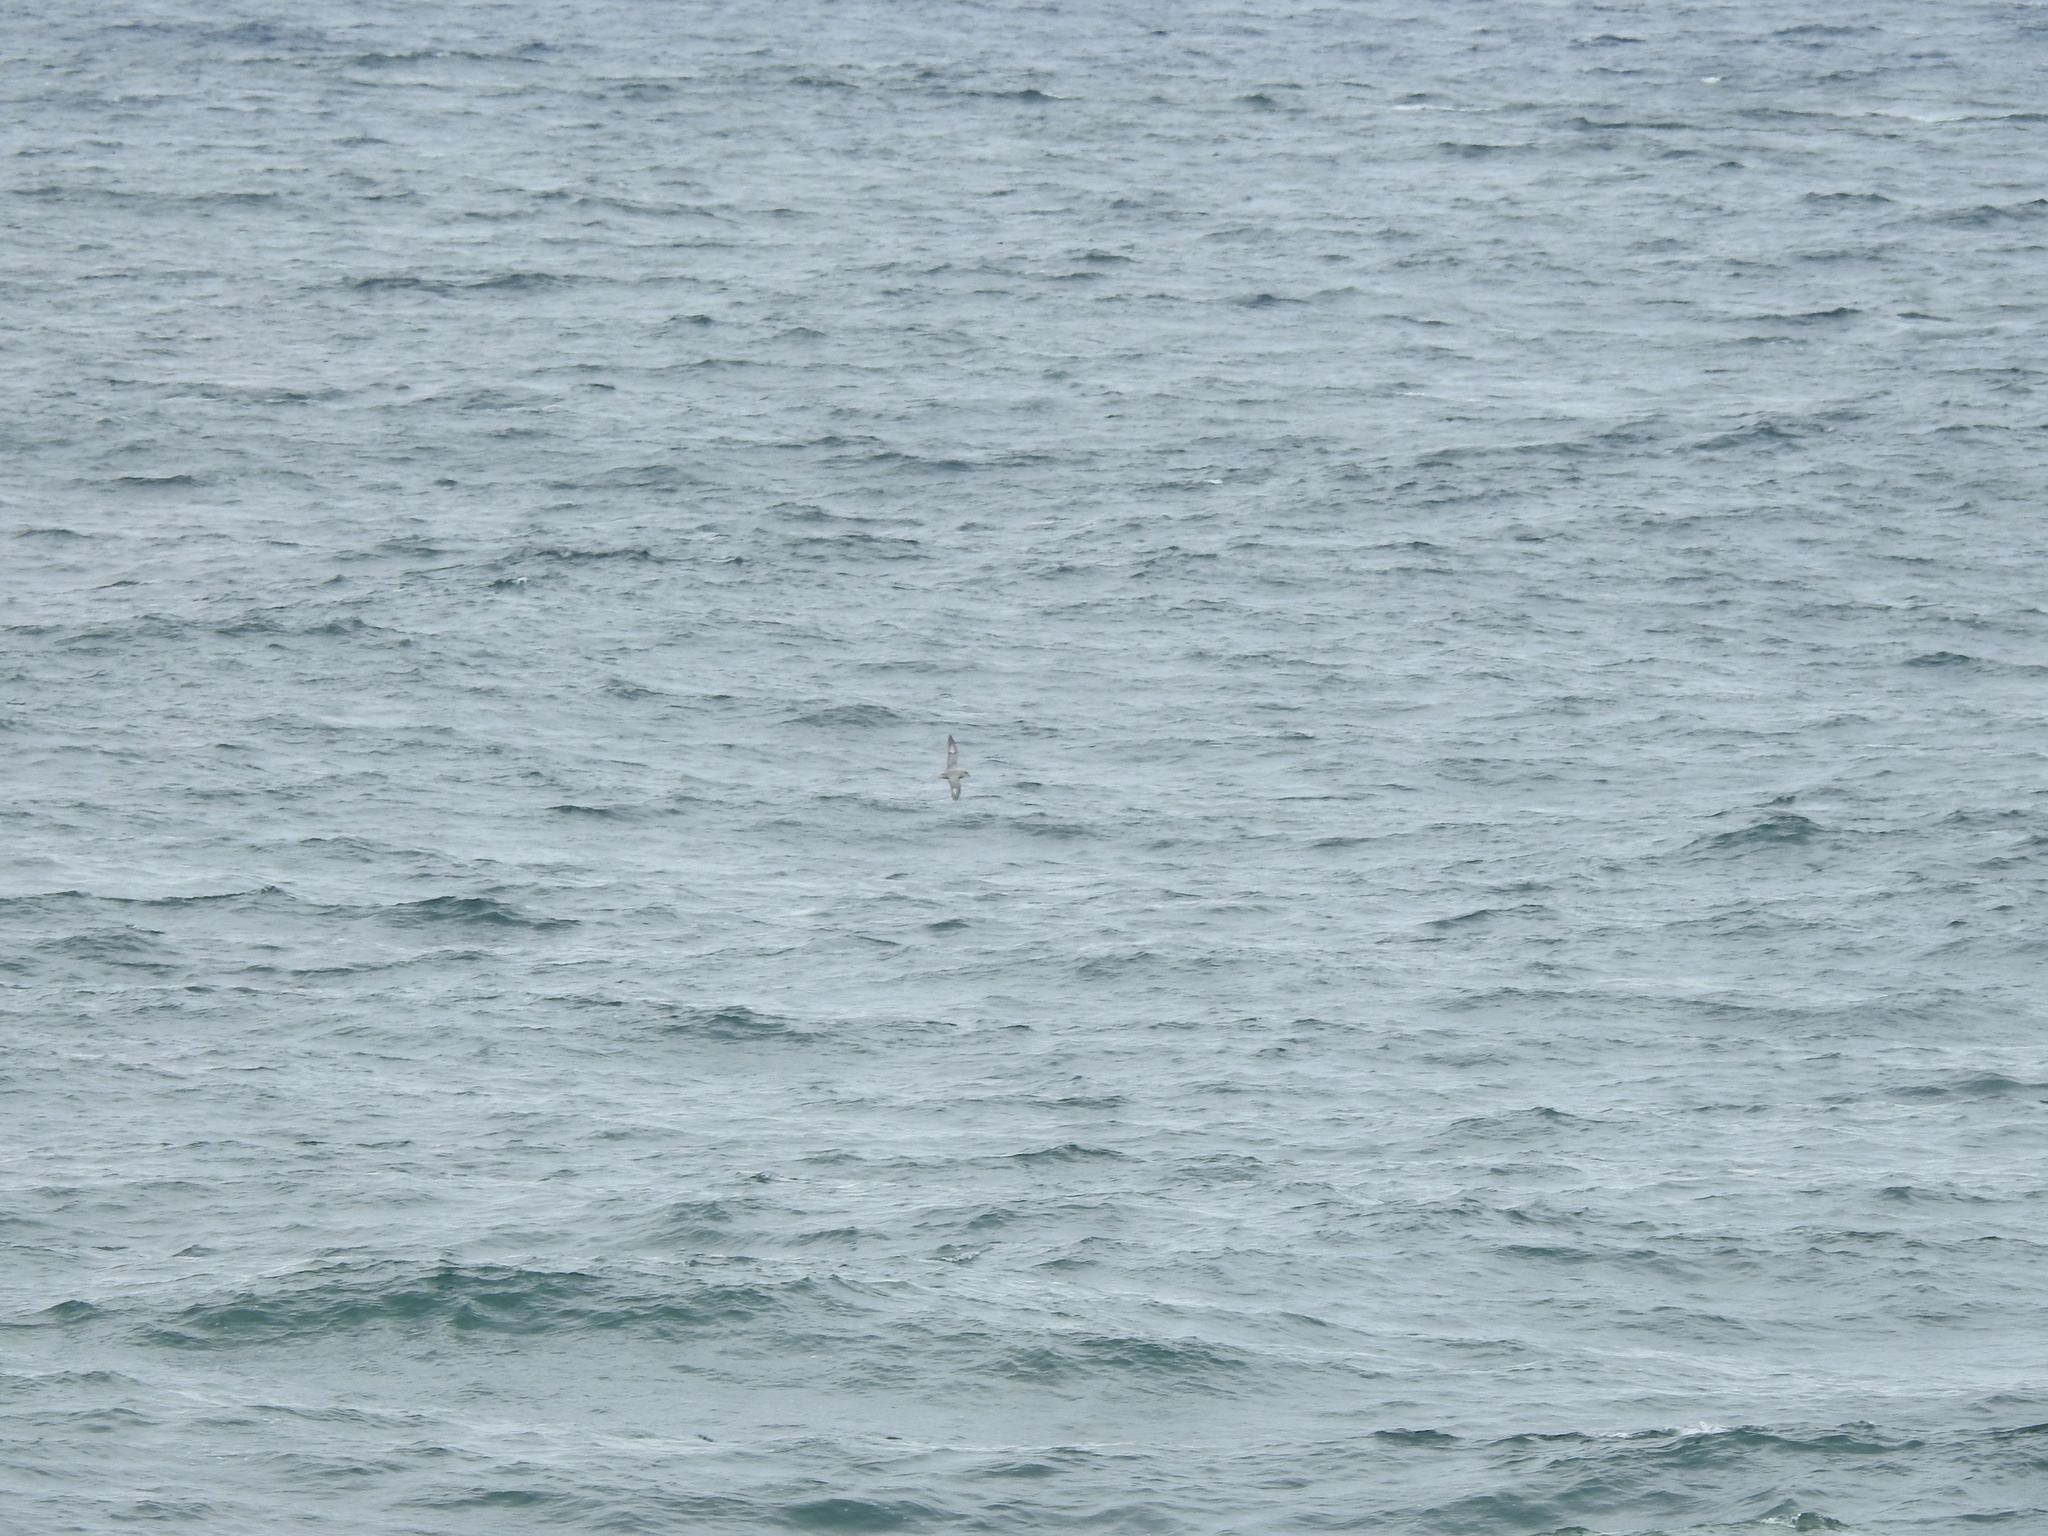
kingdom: Animalia
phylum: Chordata
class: Aves
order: Procellariiformes
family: Procellariidae
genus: Fulmarus
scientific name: Fulmarus glacialis
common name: Northern fulmar
